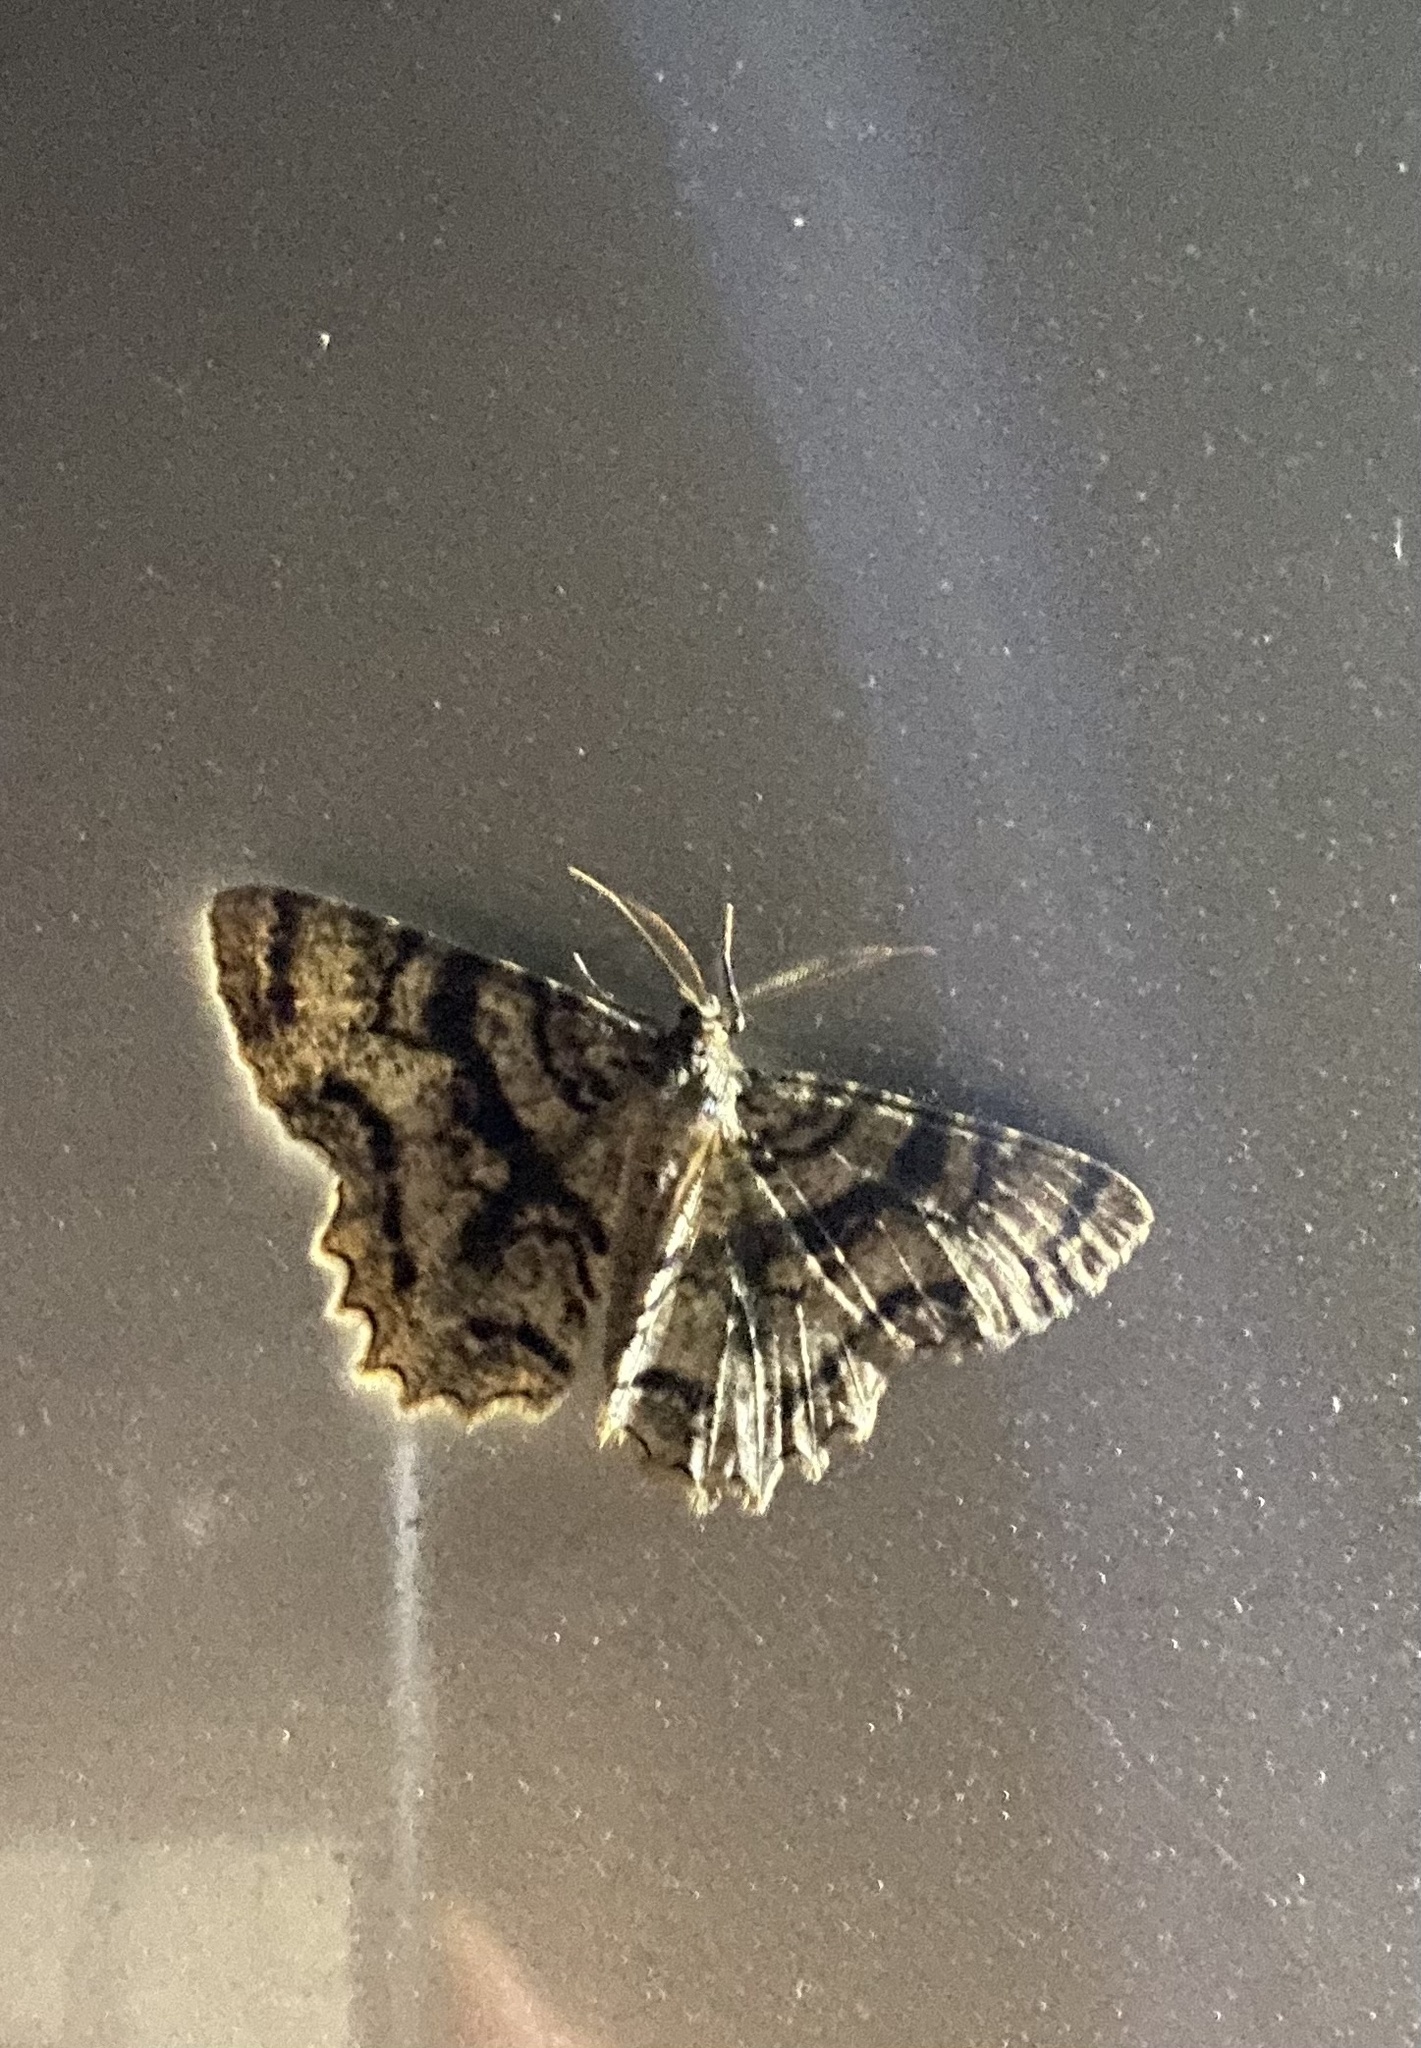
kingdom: Animalia
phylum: Arthropoda
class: Insecta
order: Lepidoptera
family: Geometridae
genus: Epimecis
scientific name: Epimecis hortaria
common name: Tulip-tree beauty
